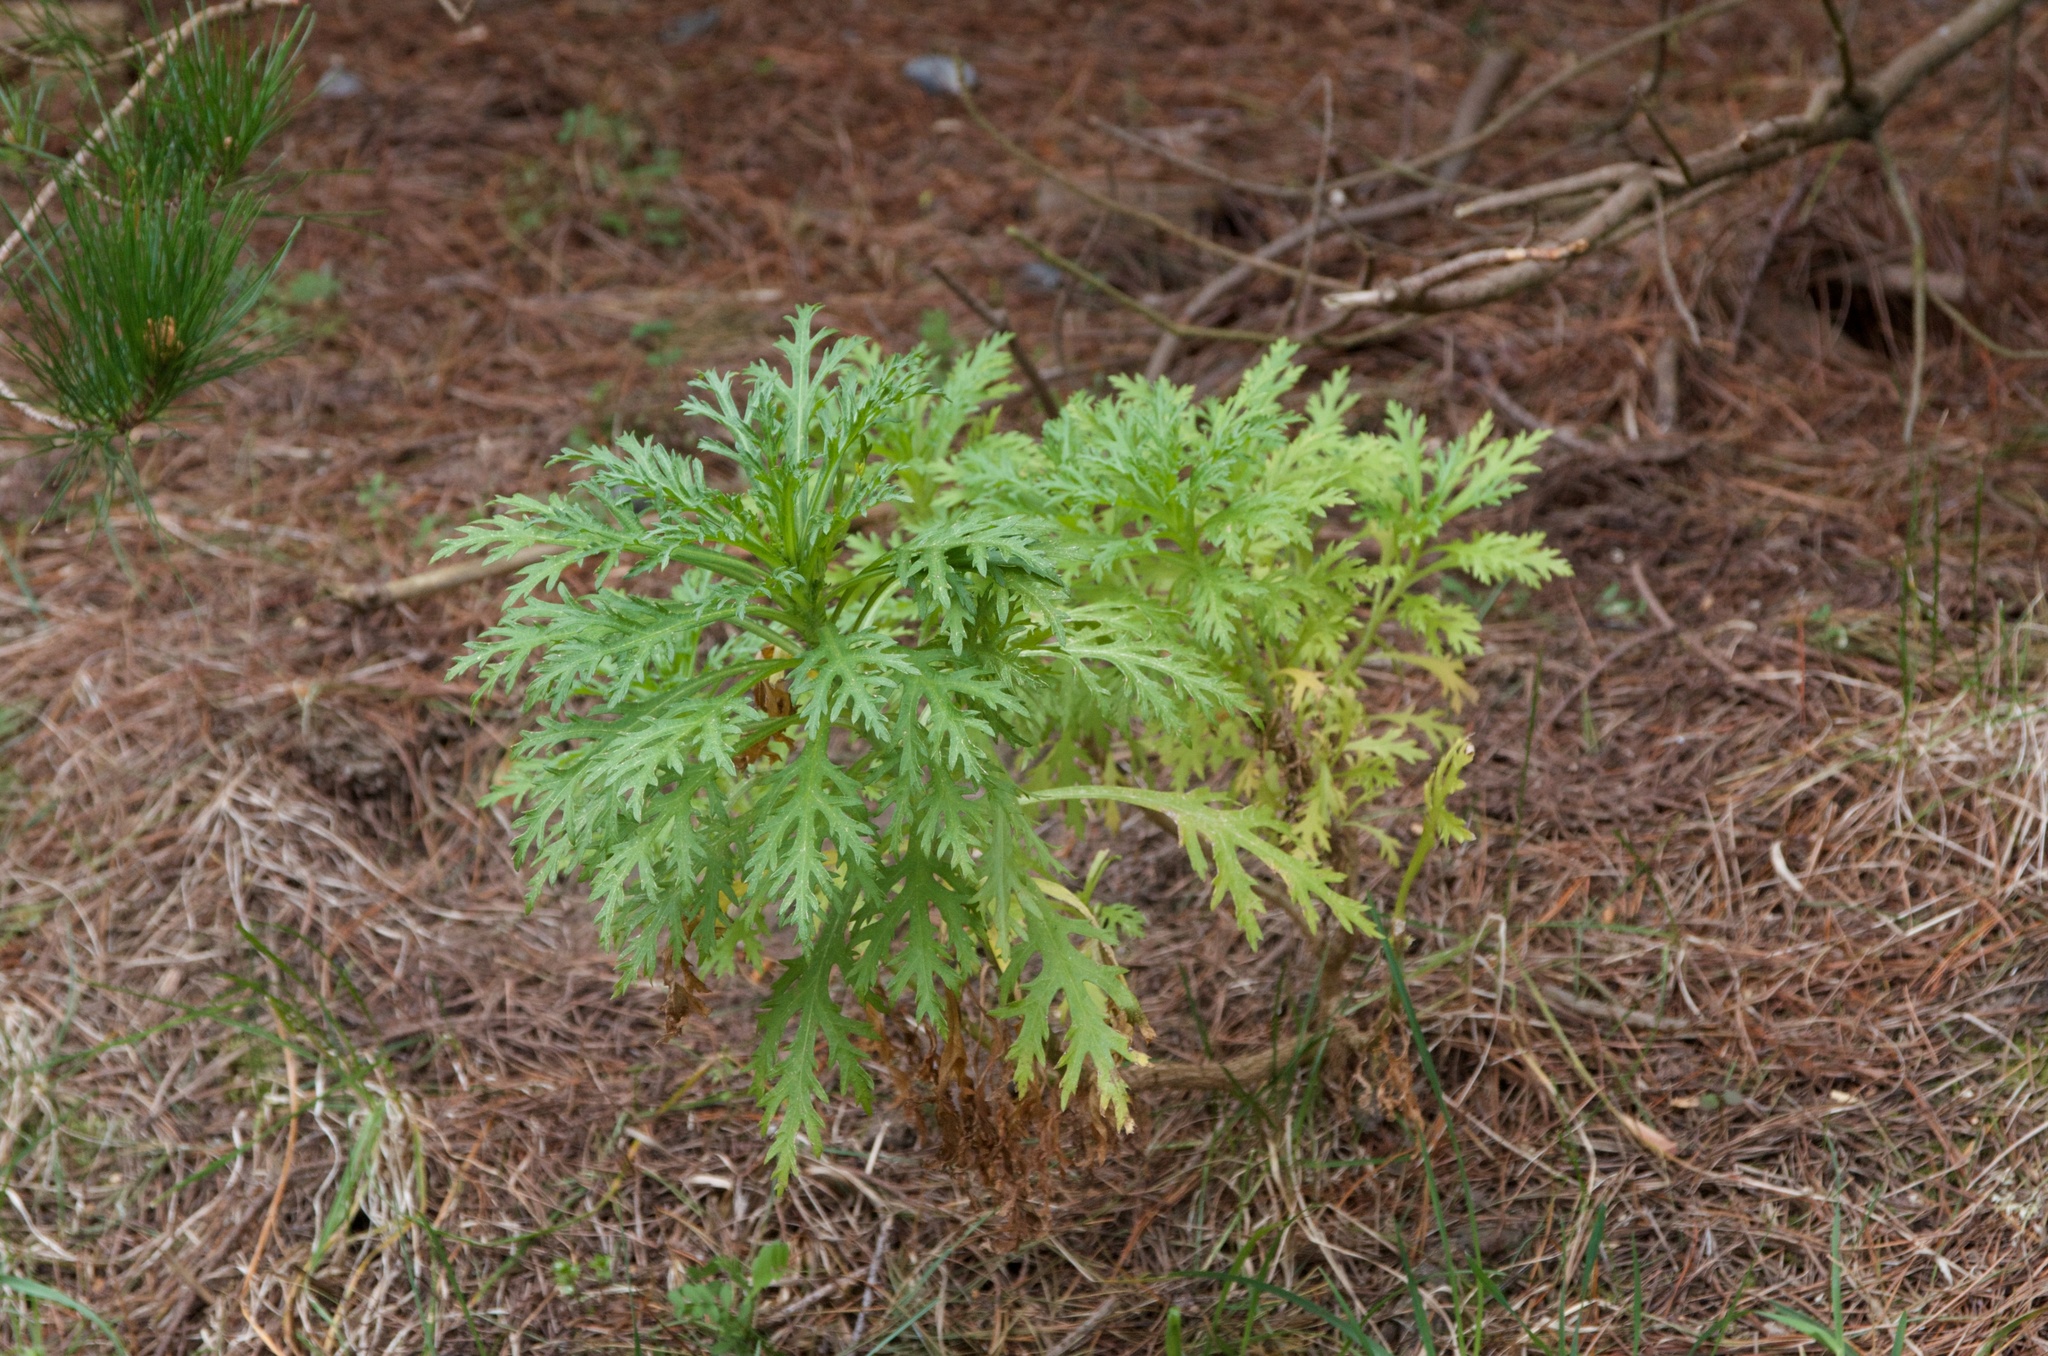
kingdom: Plantae
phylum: Tracheophyta
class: Magnoliopsida
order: Asterales
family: Asteraceae
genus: Argyranthemum
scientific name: Argyranthemum frutescens
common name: Paris daisy
